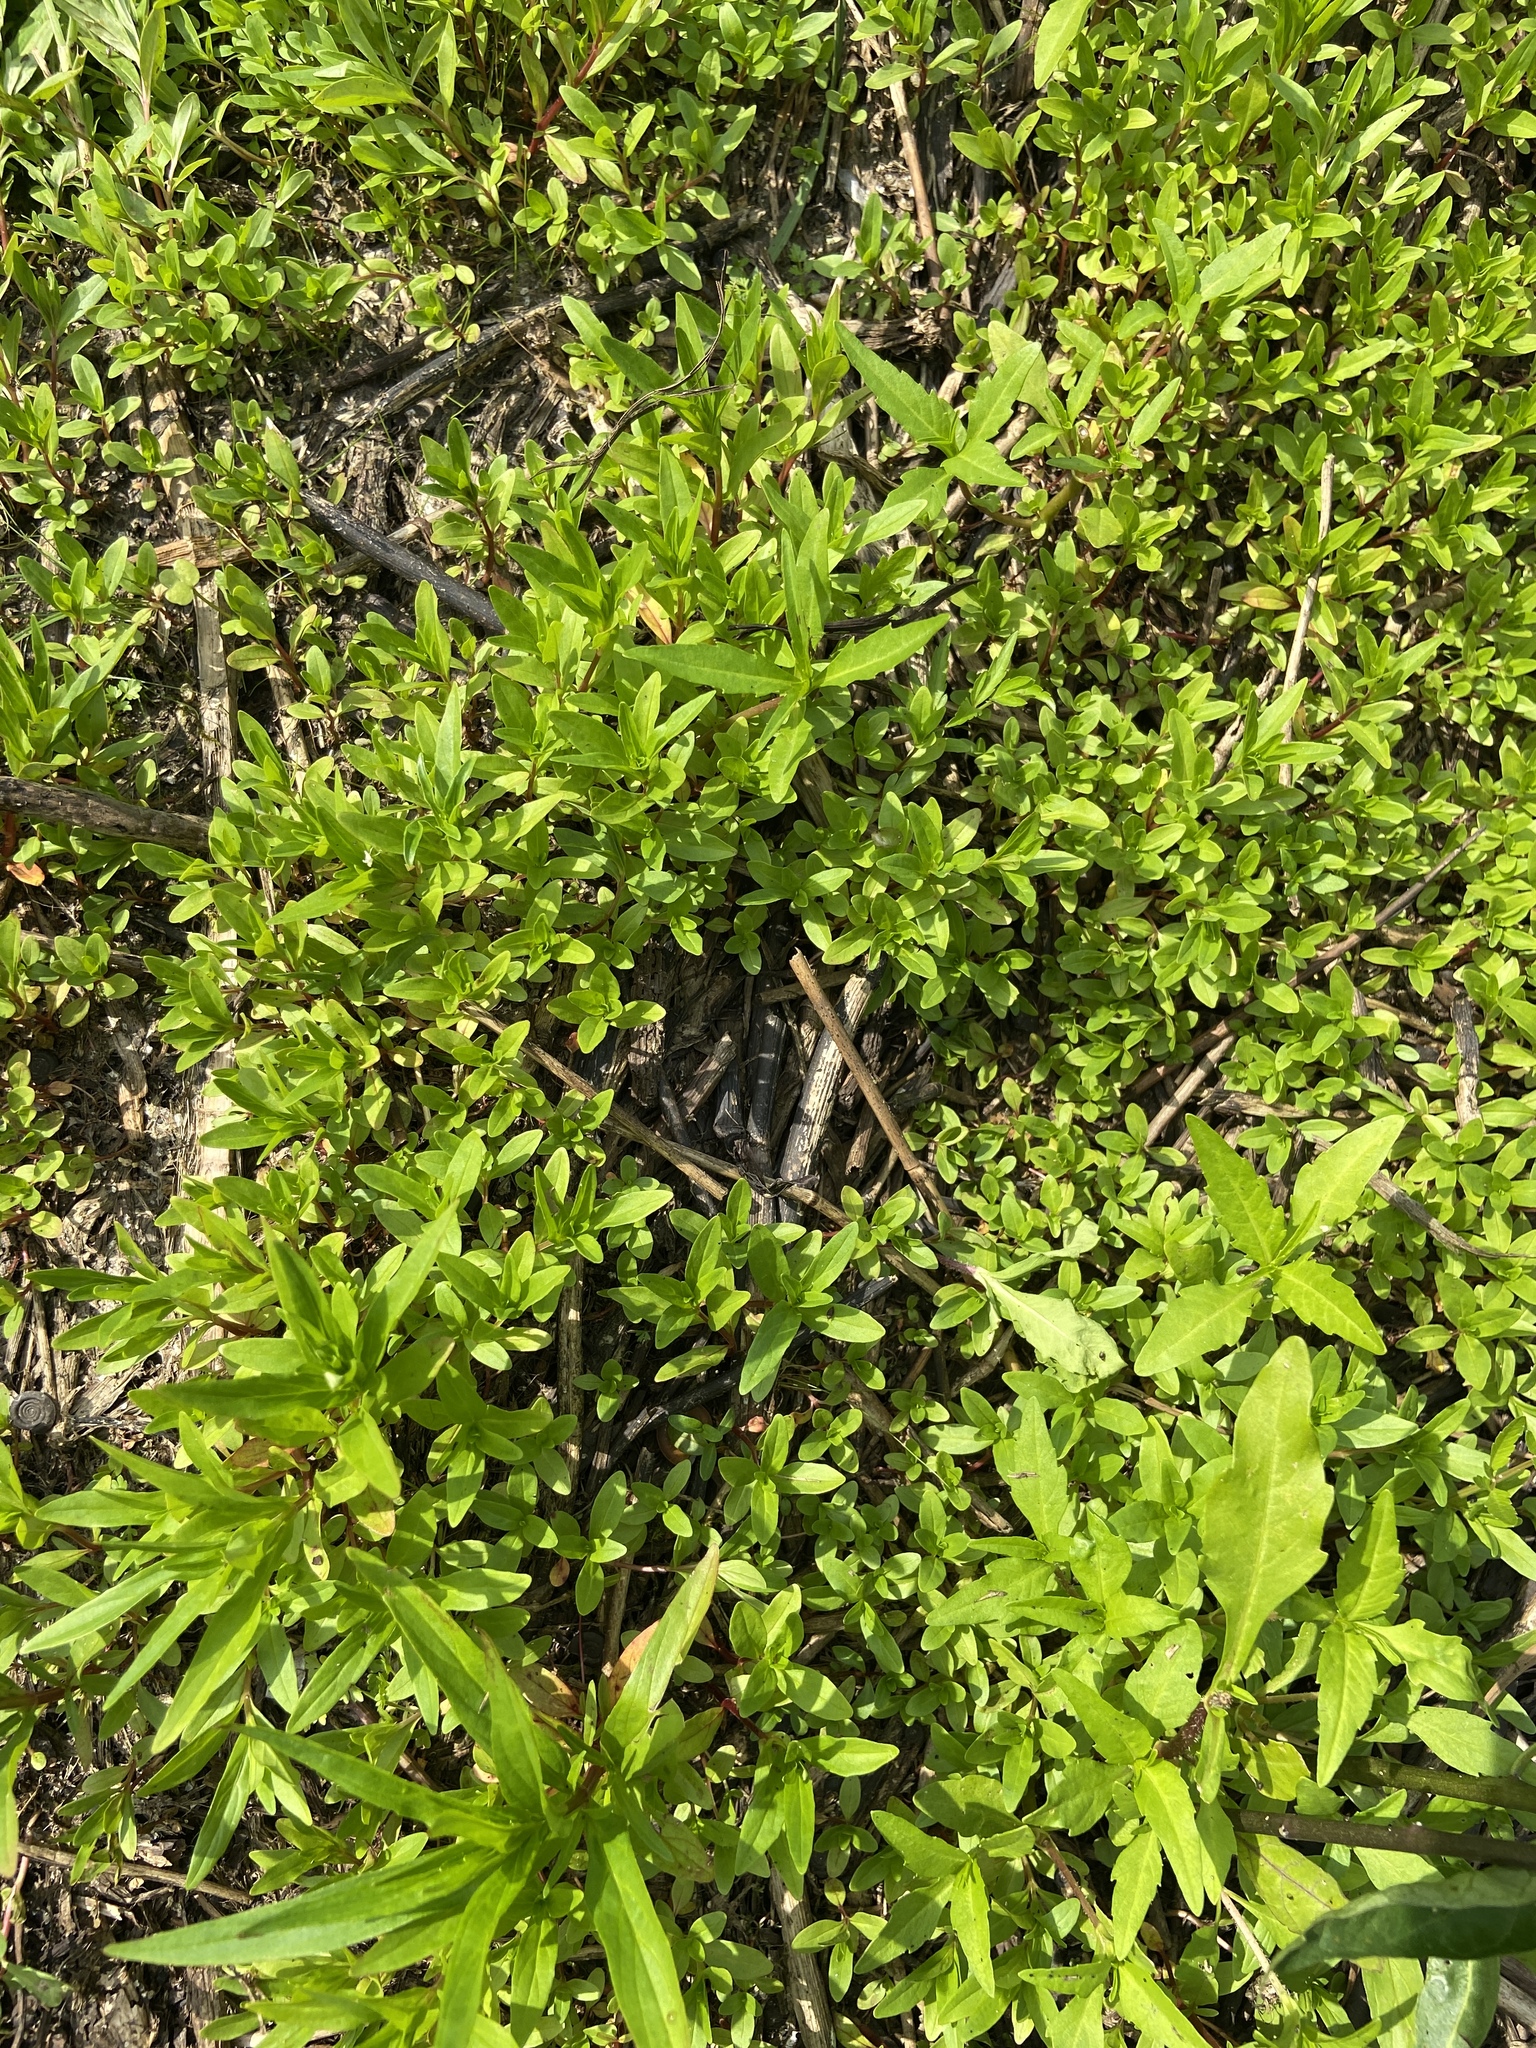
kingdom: Plantae
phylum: Tracheophyta
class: Magnoliopsida
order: Ranunculales
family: Ranunculaceae
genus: Ranunculus
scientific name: Ranunculus sceleratus
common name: Celery-leaved buttercup
